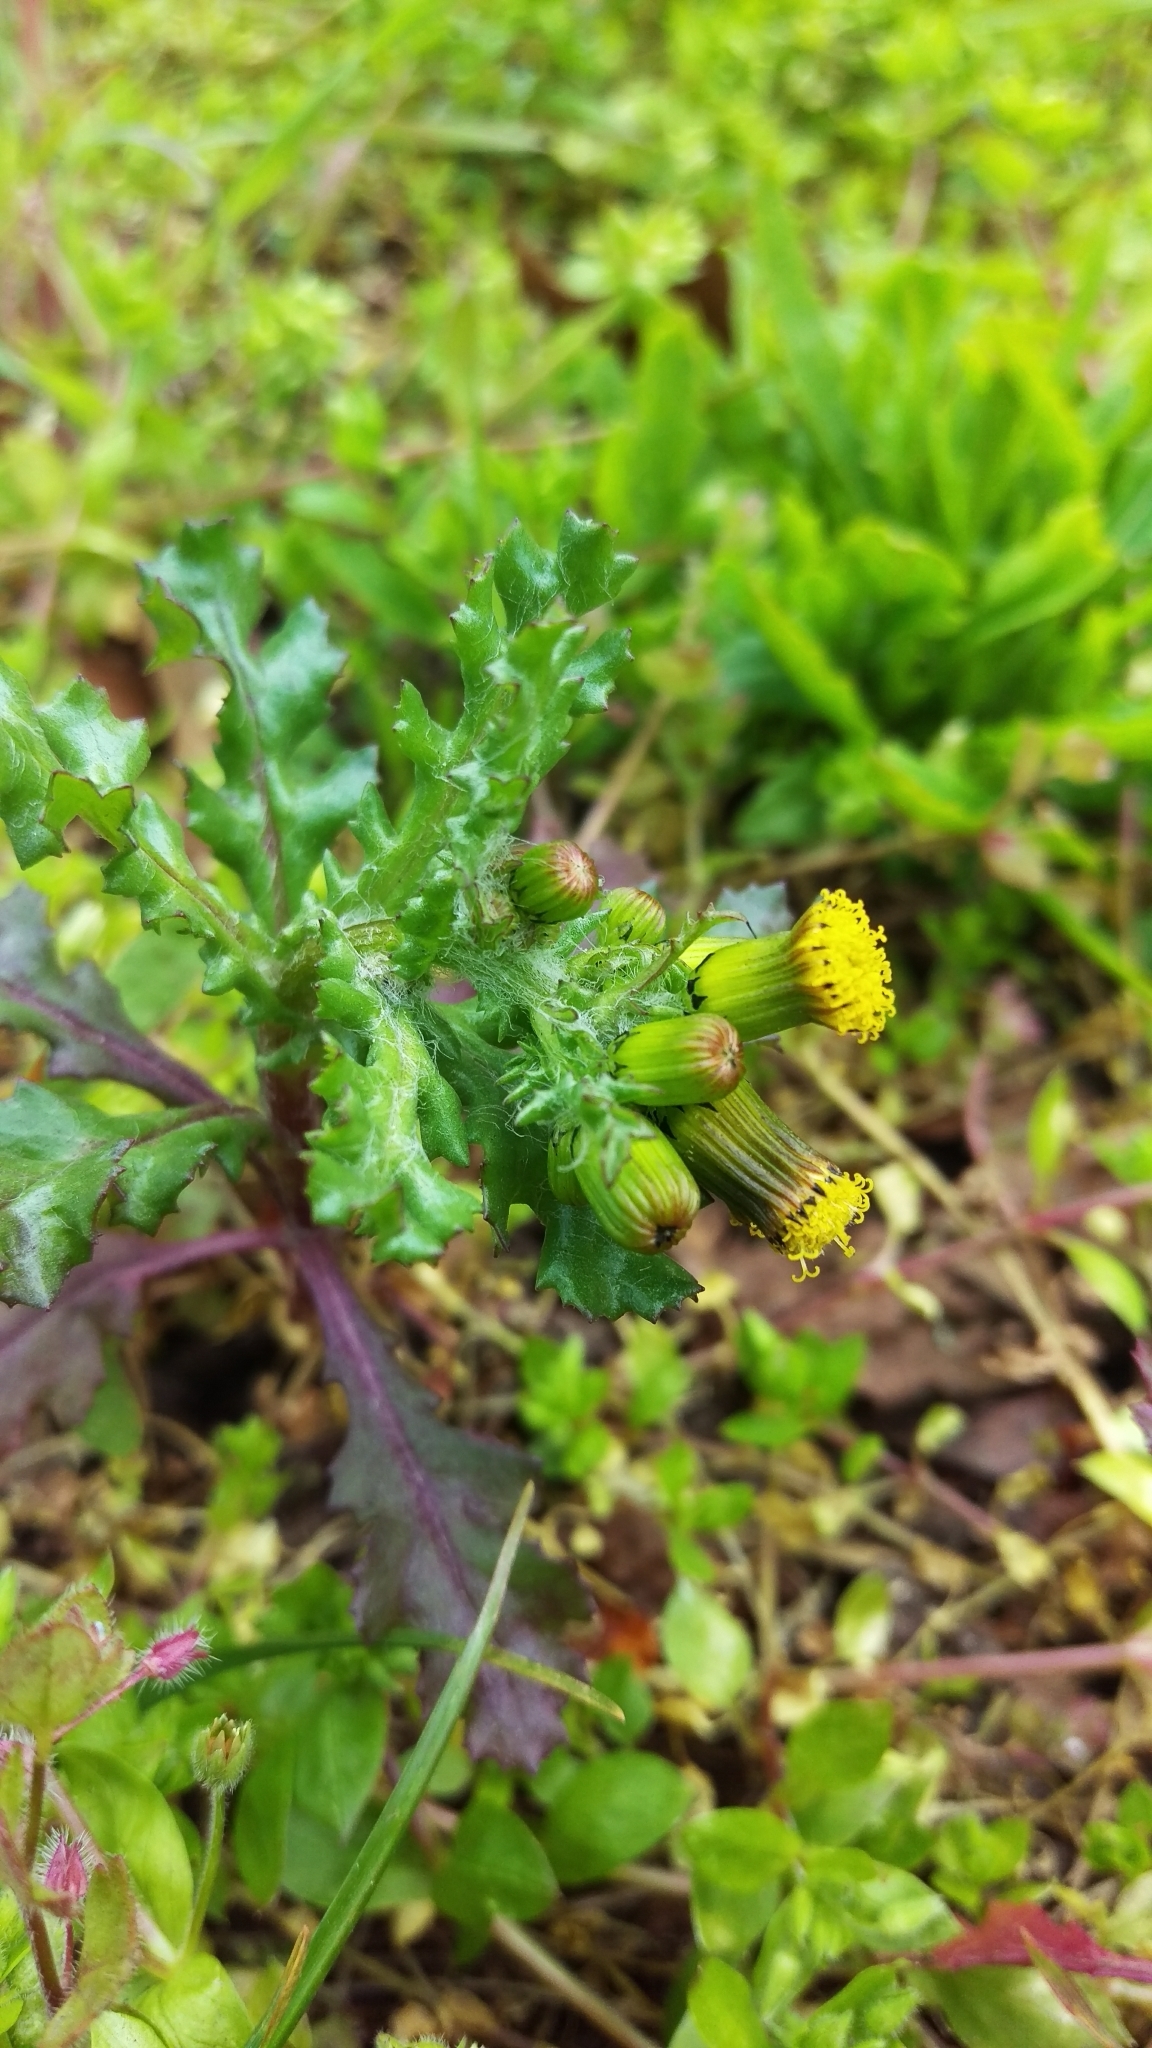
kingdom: Plantae
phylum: Tracheophyta
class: Magnoliopsida
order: Asterales
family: Asteraceae
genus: Senecio
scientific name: Senecio vulgaris
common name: Old-man-in-the-spring
